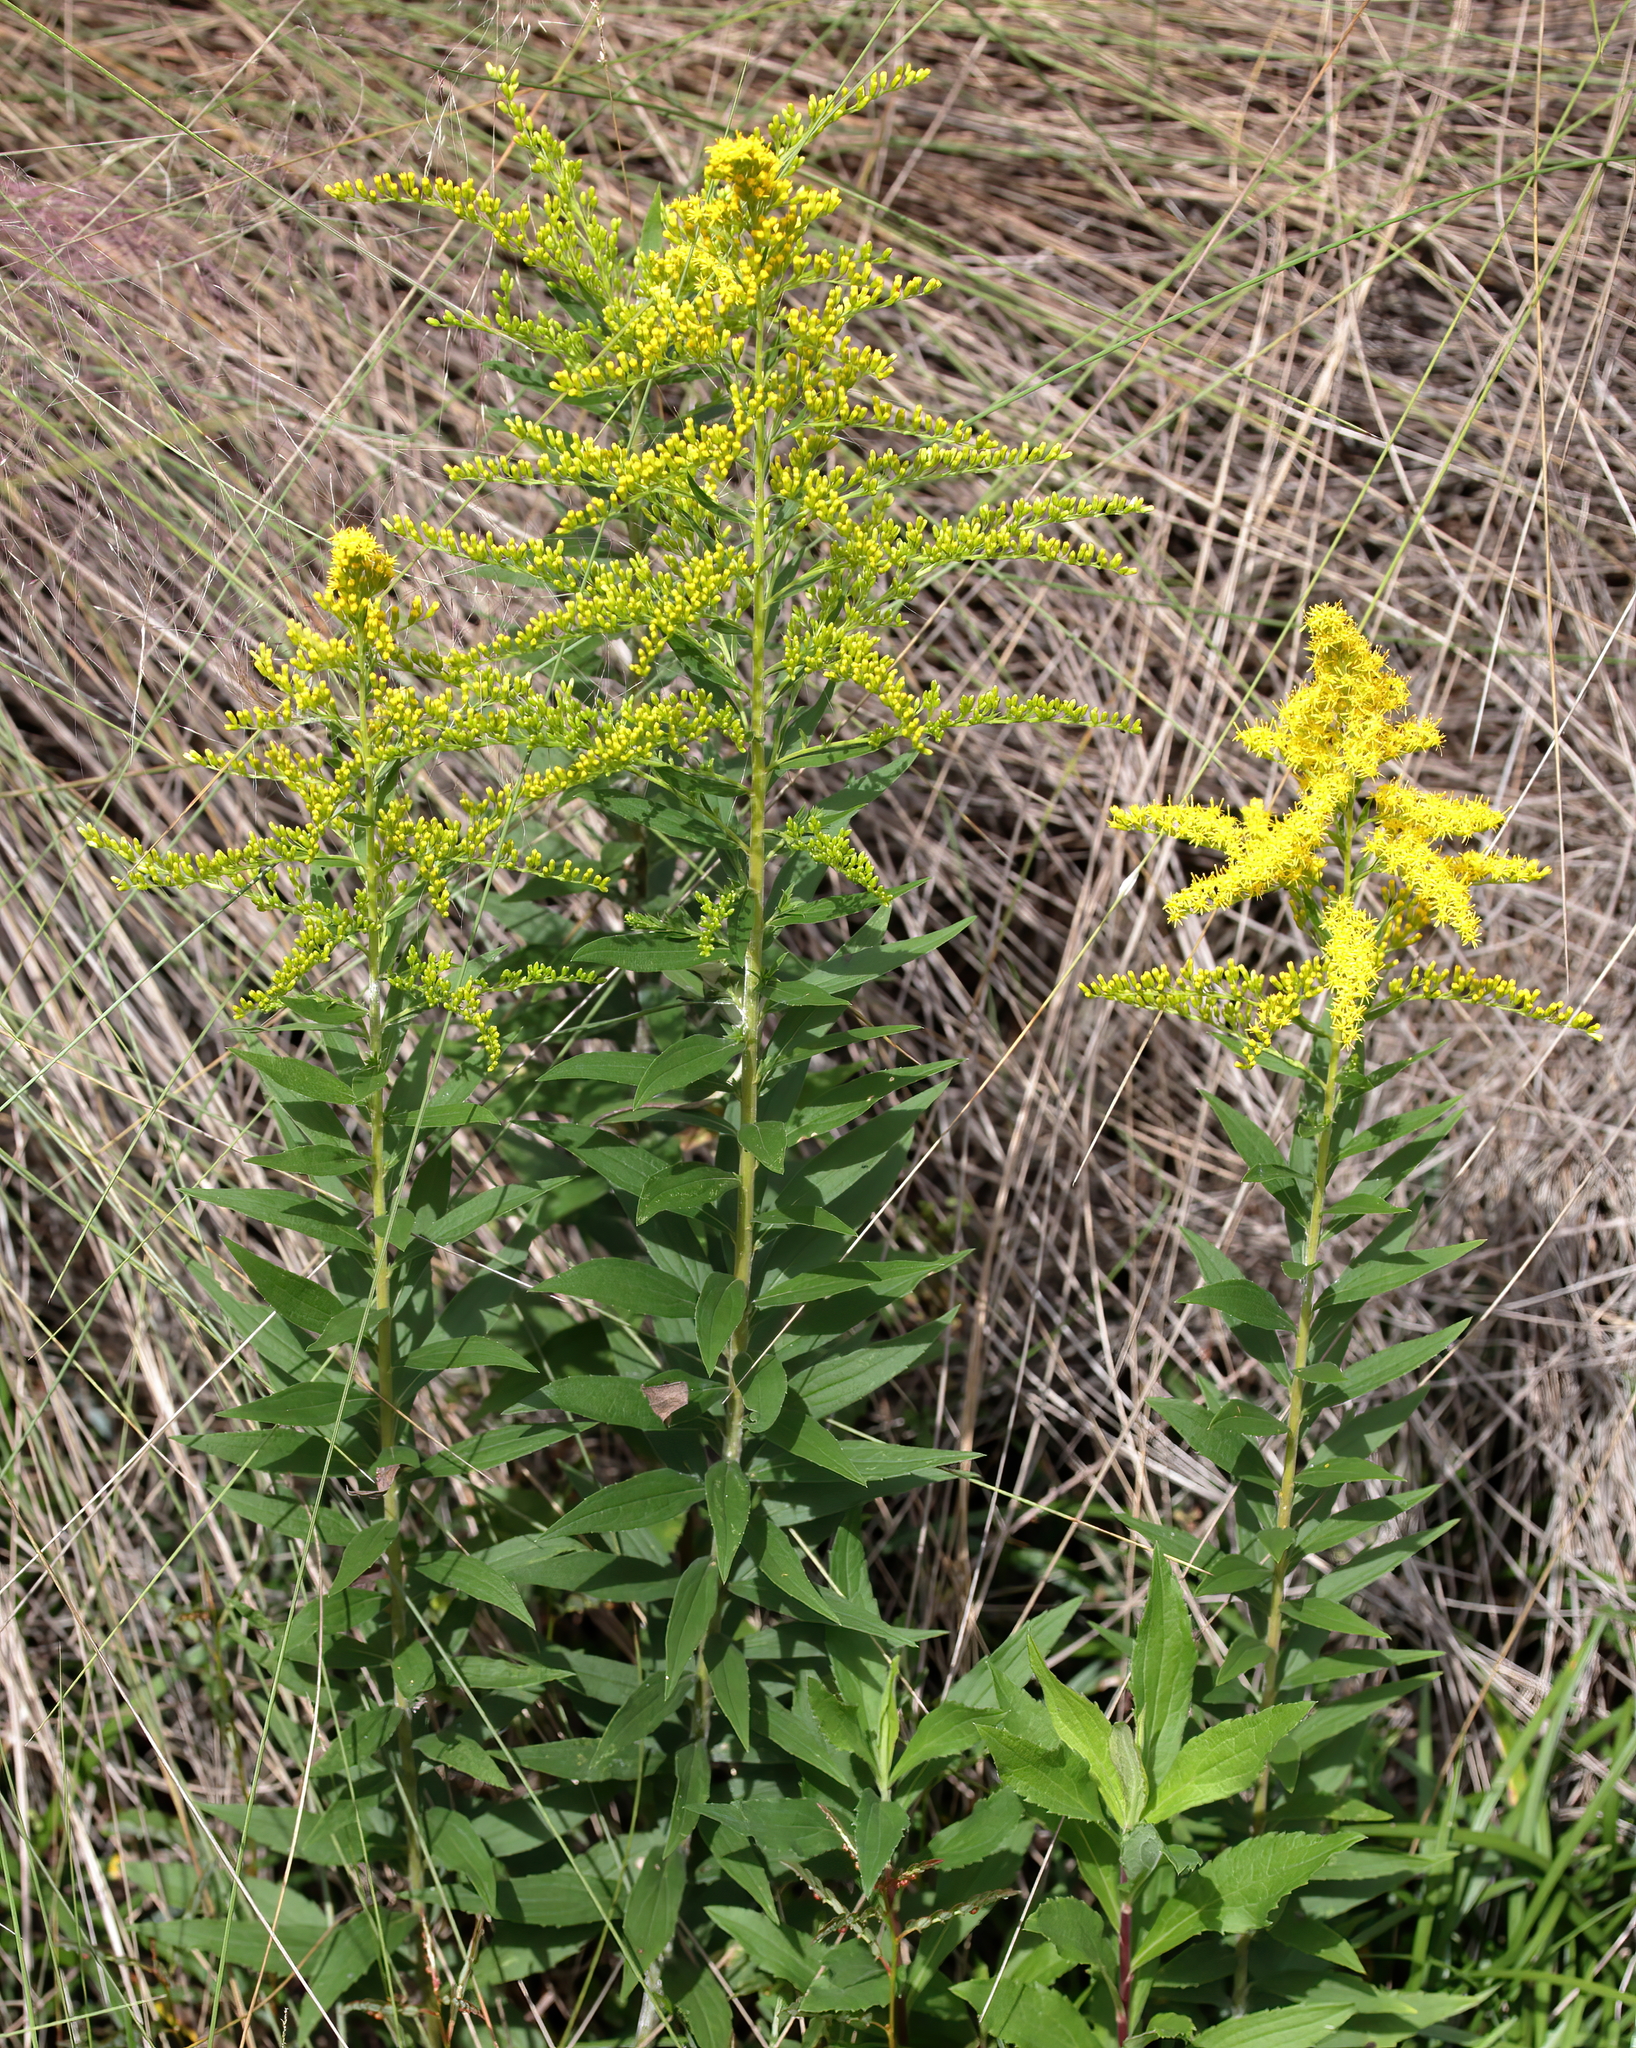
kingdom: Plantae
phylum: Tracheophyta
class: Magnoliopsida
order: Asterales
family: Asteraceae
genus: Solidago
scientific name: Solidago altissima
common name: Late goldenrod
